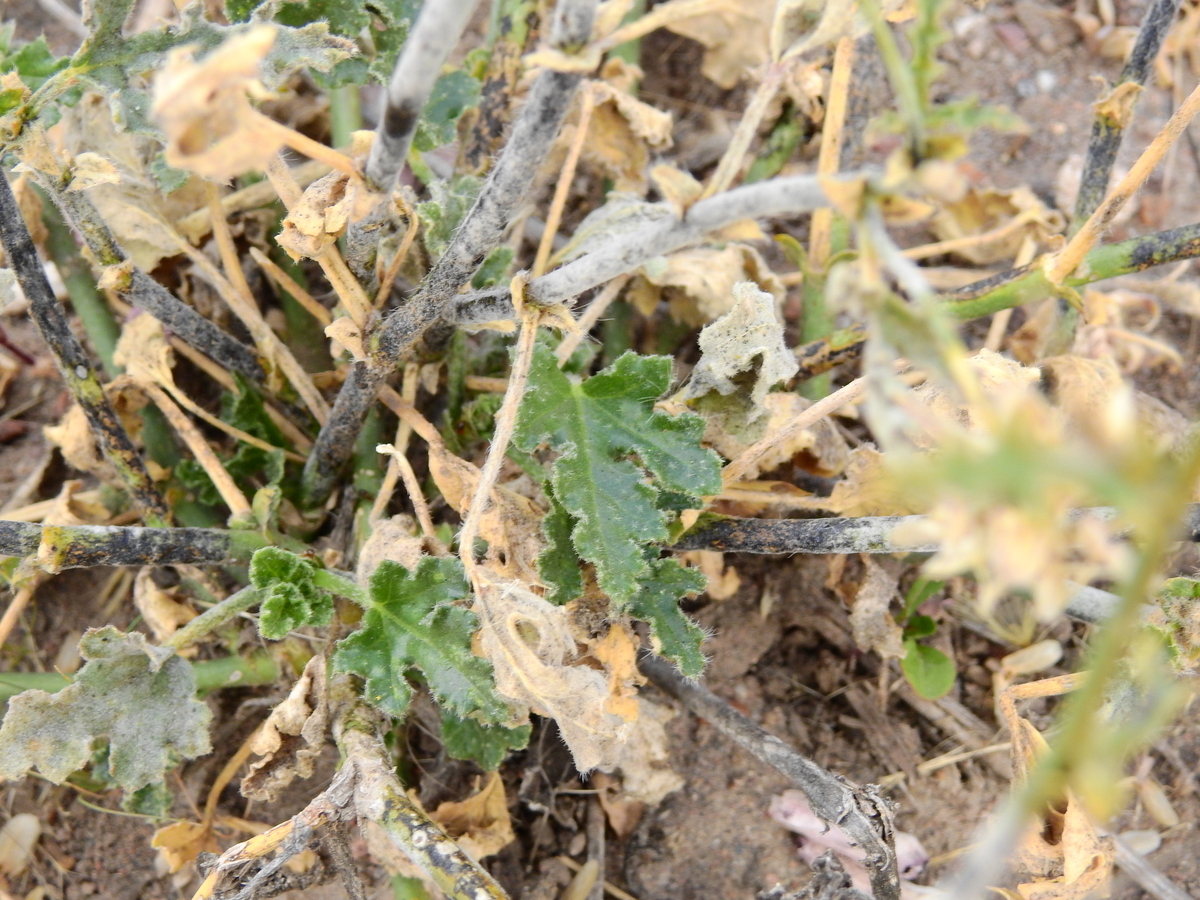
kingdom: Plantae
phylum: Tracheophyta
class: Magnoliopsida
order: Malvales
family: Malvaceae
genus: Lecanophora
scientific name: Lecanophora heterophylla
